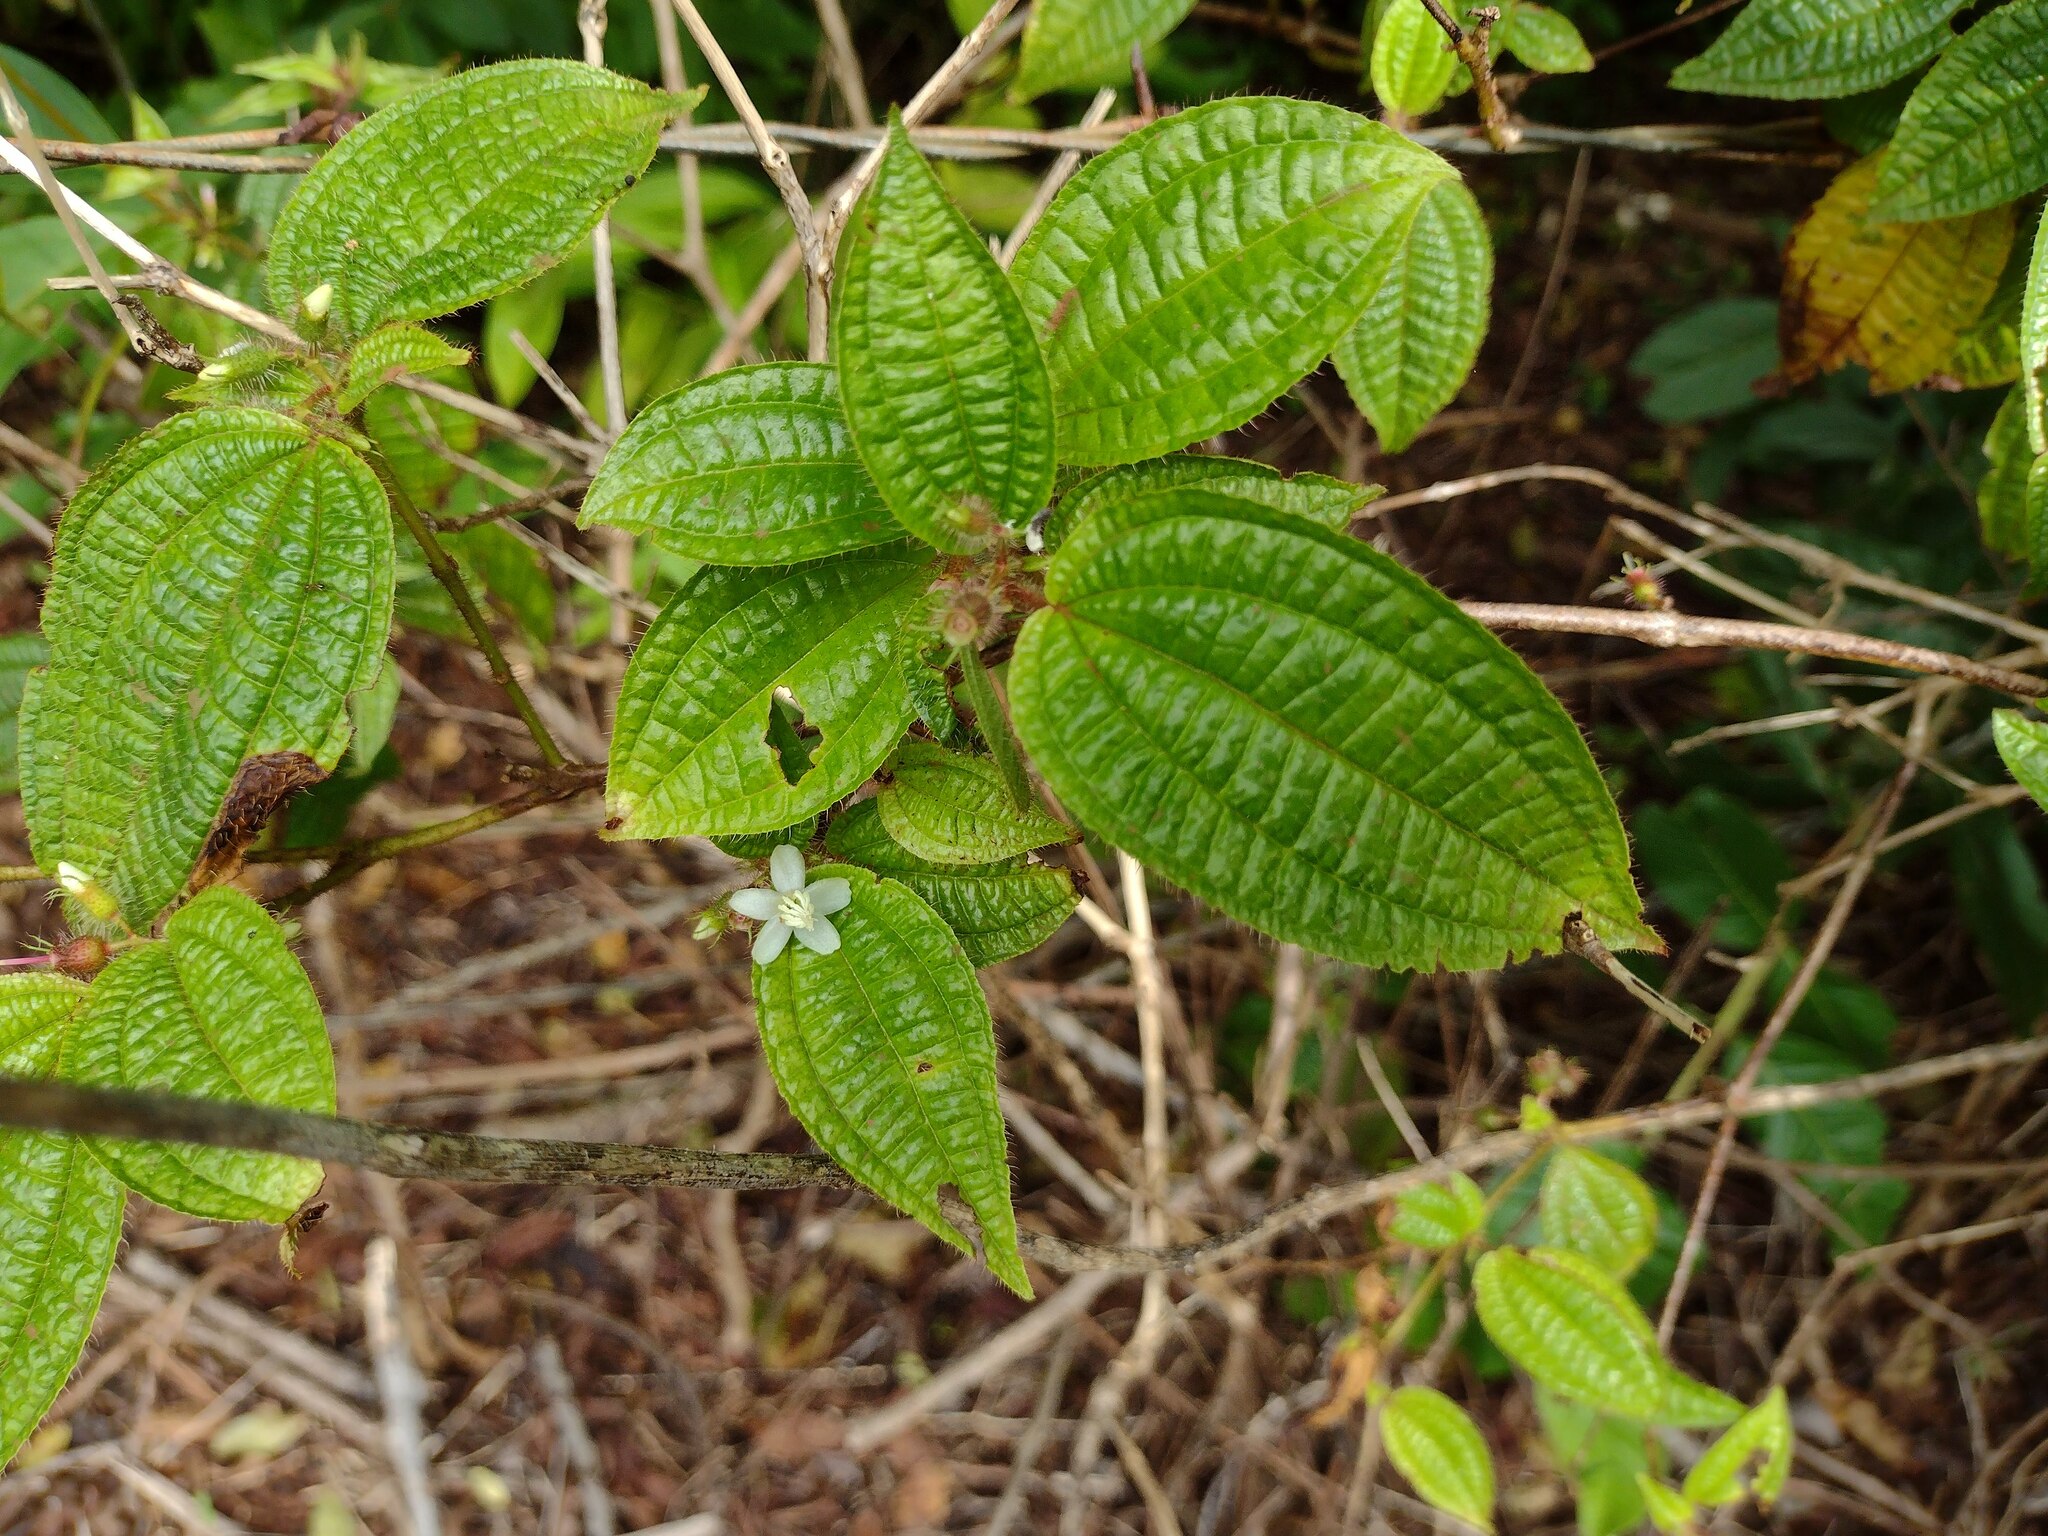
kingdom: Plantae
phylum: Tracheophyta
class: Magnoliopsida
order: Myrtales
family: Melastomataceae
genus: Miconia
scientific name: Miconia crenata
